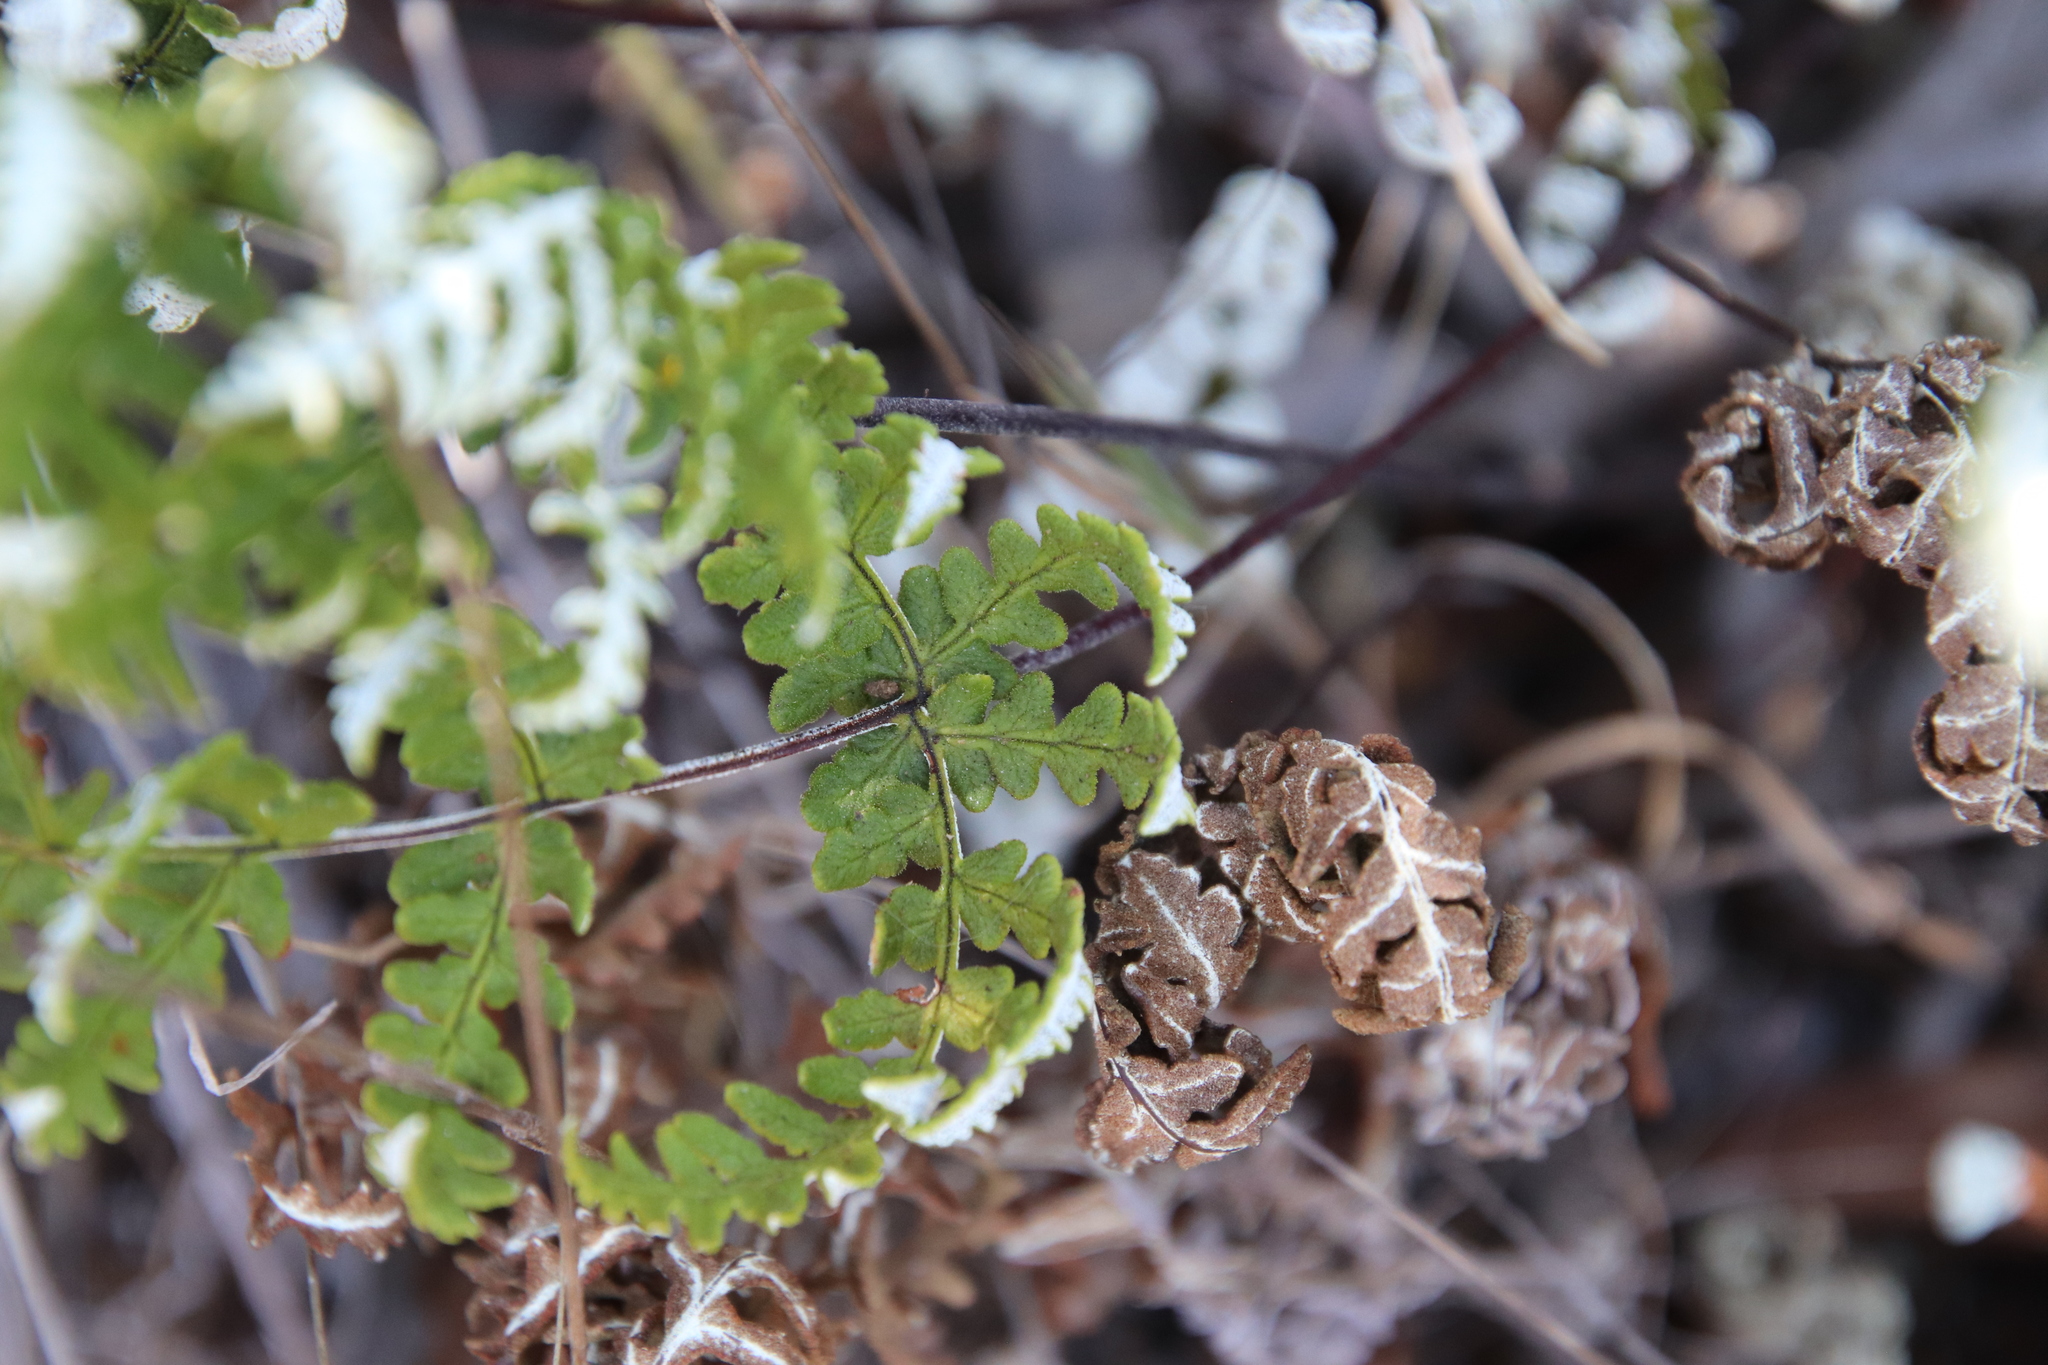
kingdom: Plantae
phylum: Tracheophyta
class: Polypodiopsida
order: Polypodiales
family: Pteridaceae
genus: Pentagramma
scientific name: Pentagramma glanduloviscida
